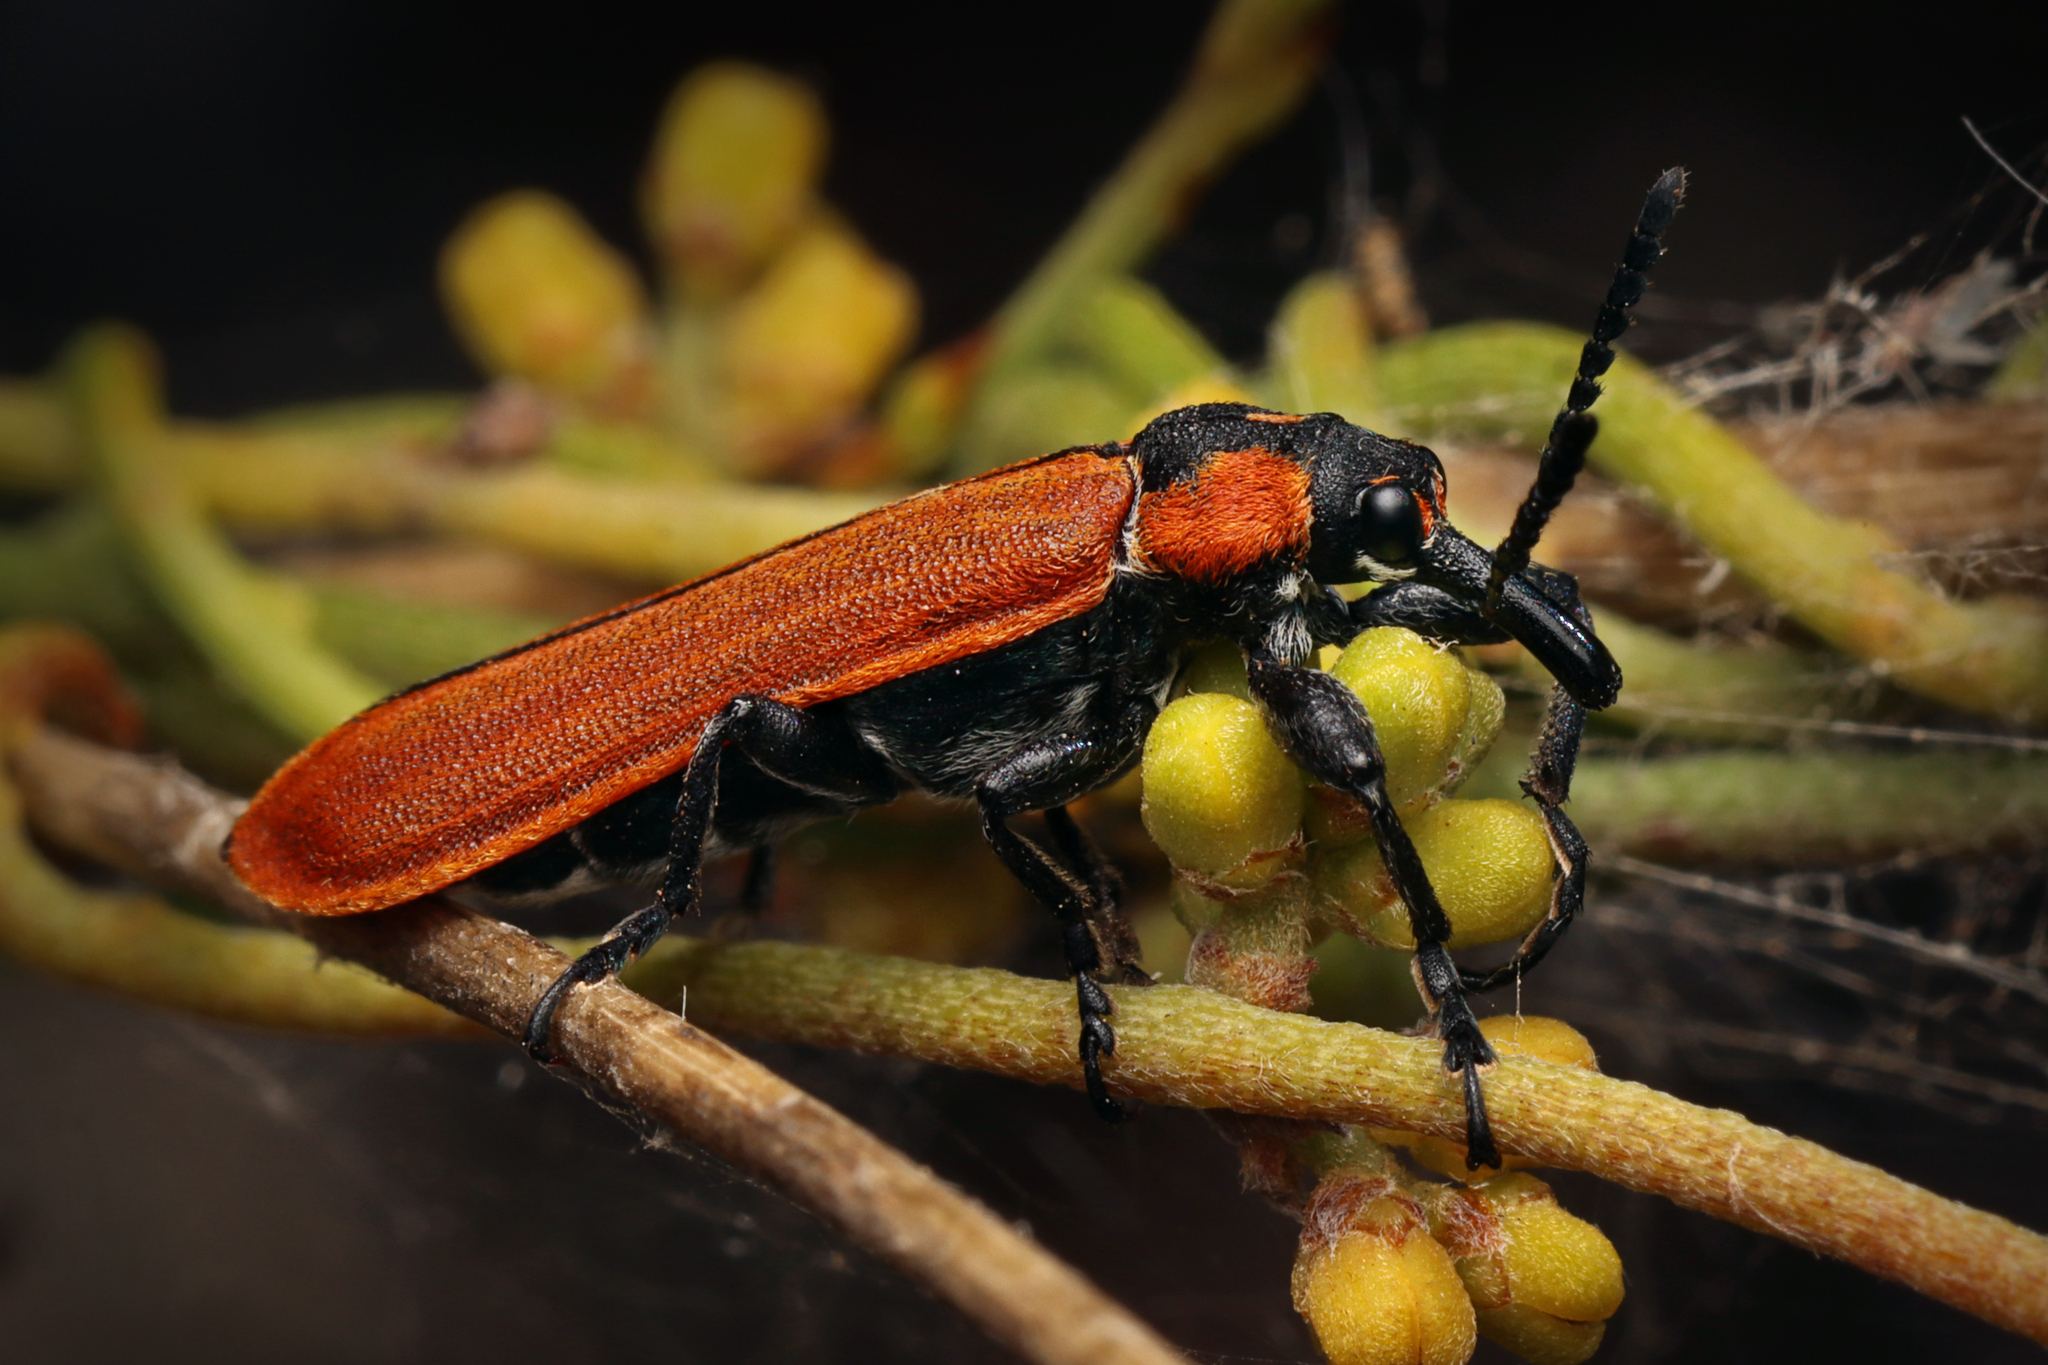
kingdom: Animalia
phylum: Arthropoda
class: Insecta
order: Coleoptera
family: Belidae
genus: Rhinotia
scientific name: Rhinotia haemoptera
